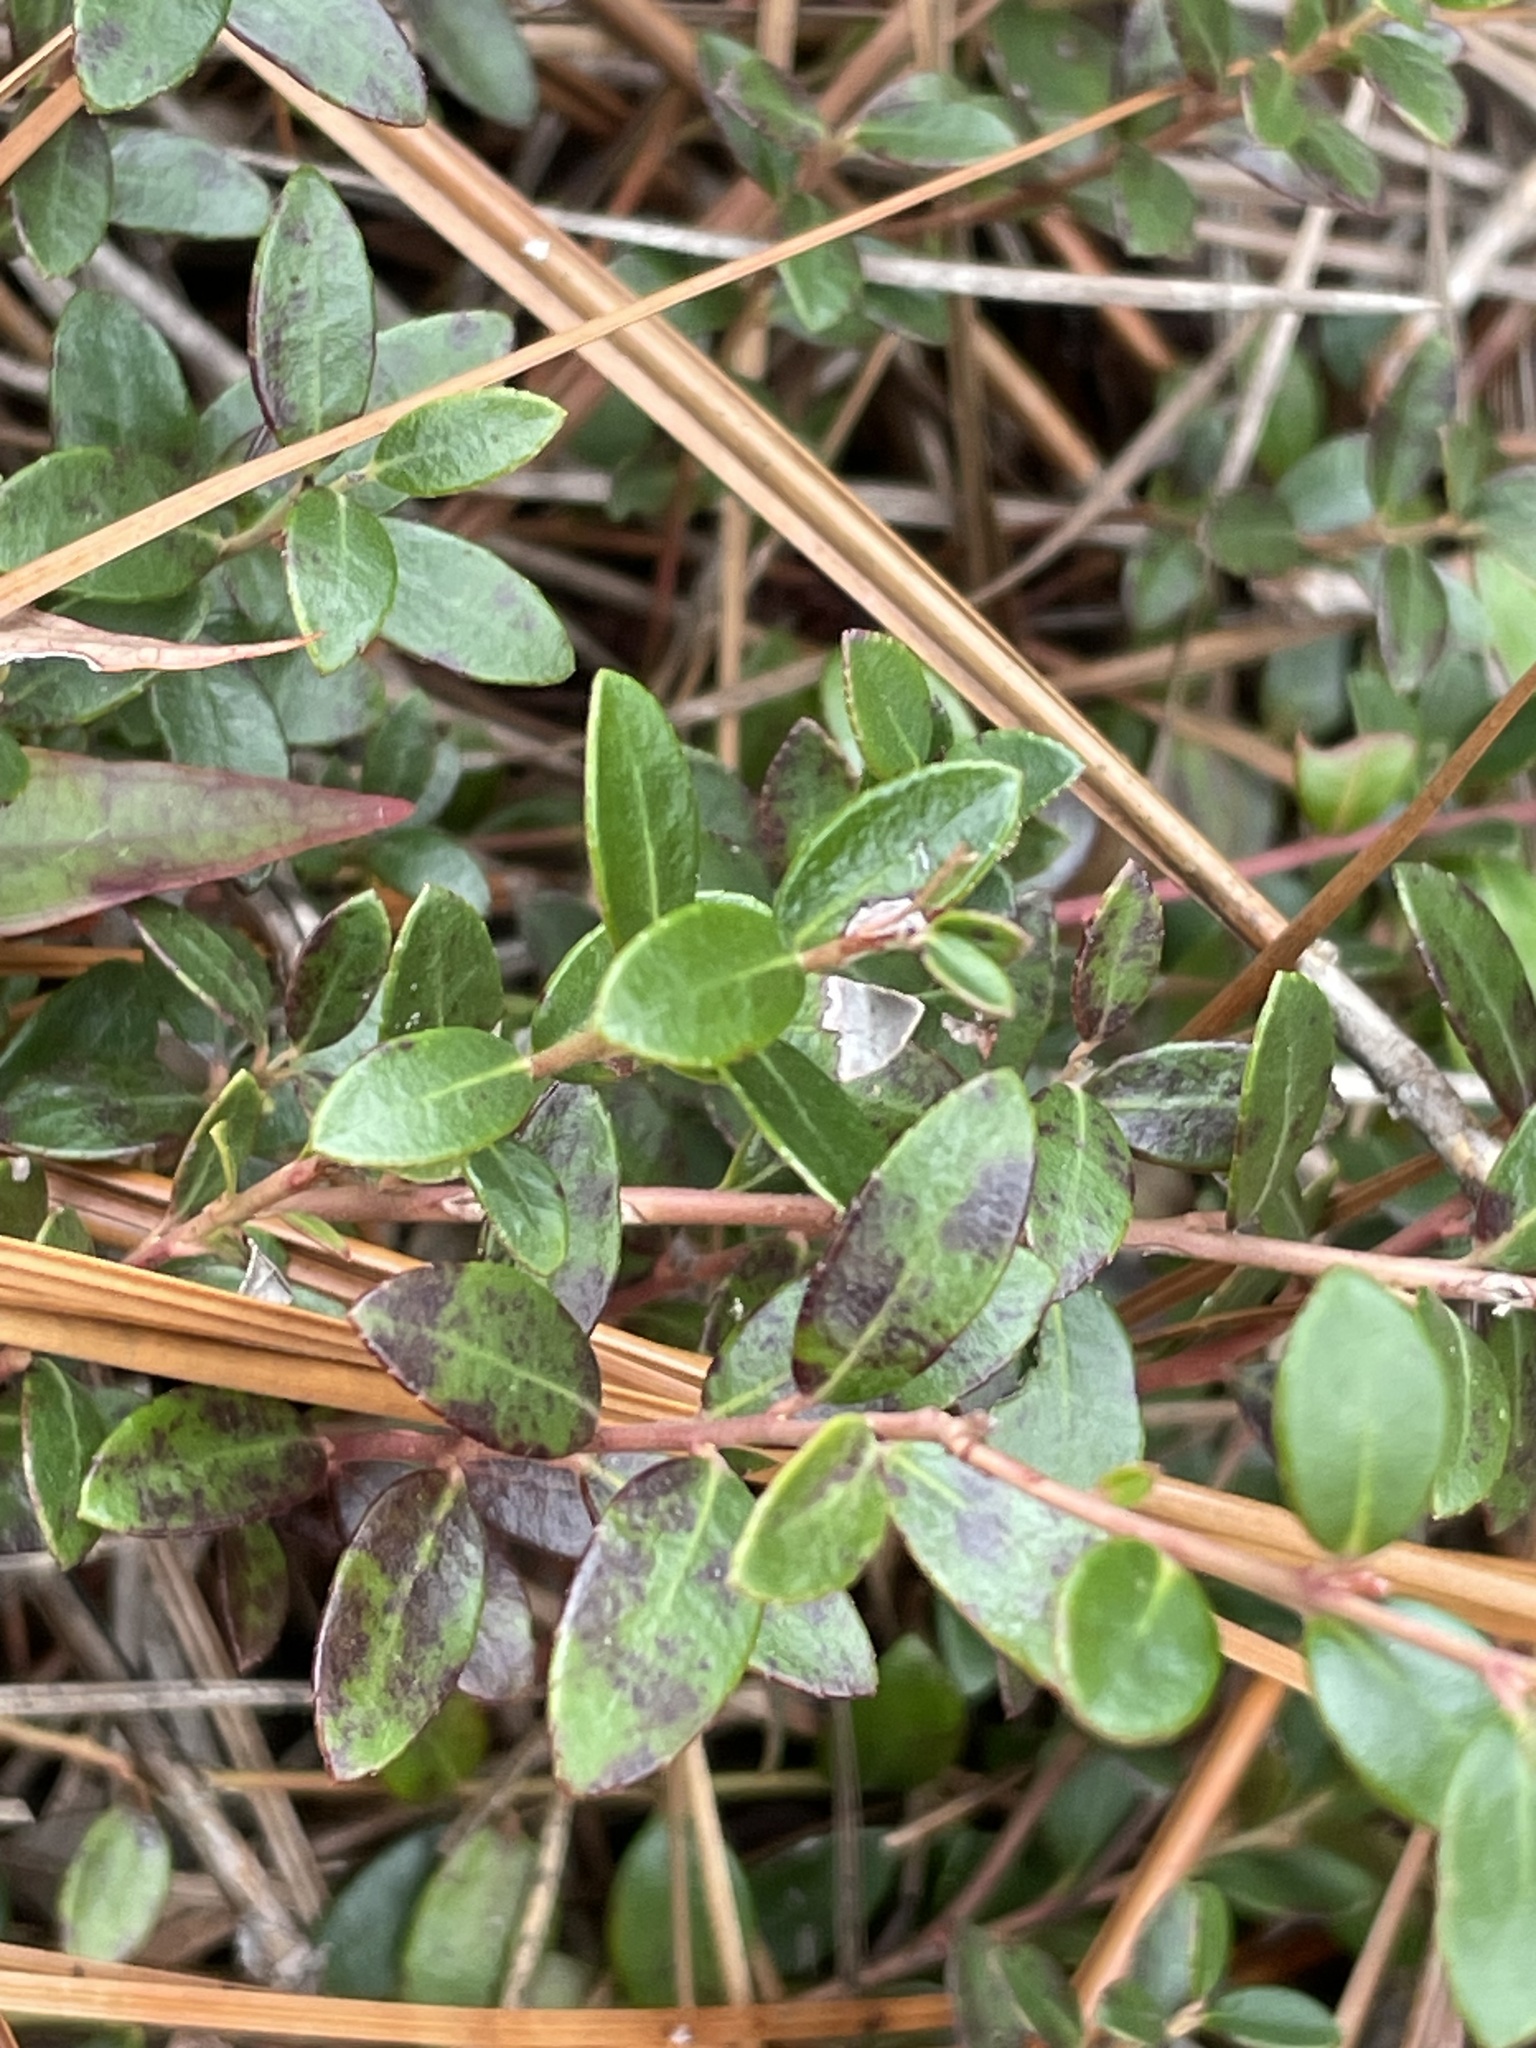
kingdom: Plantae
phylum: Tracheophyta
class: Magnoliopsida
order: Ericales
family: Ericaceae
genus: Vaccinium
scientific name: Vaccinium crassifolium
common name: Creeping blueberry
